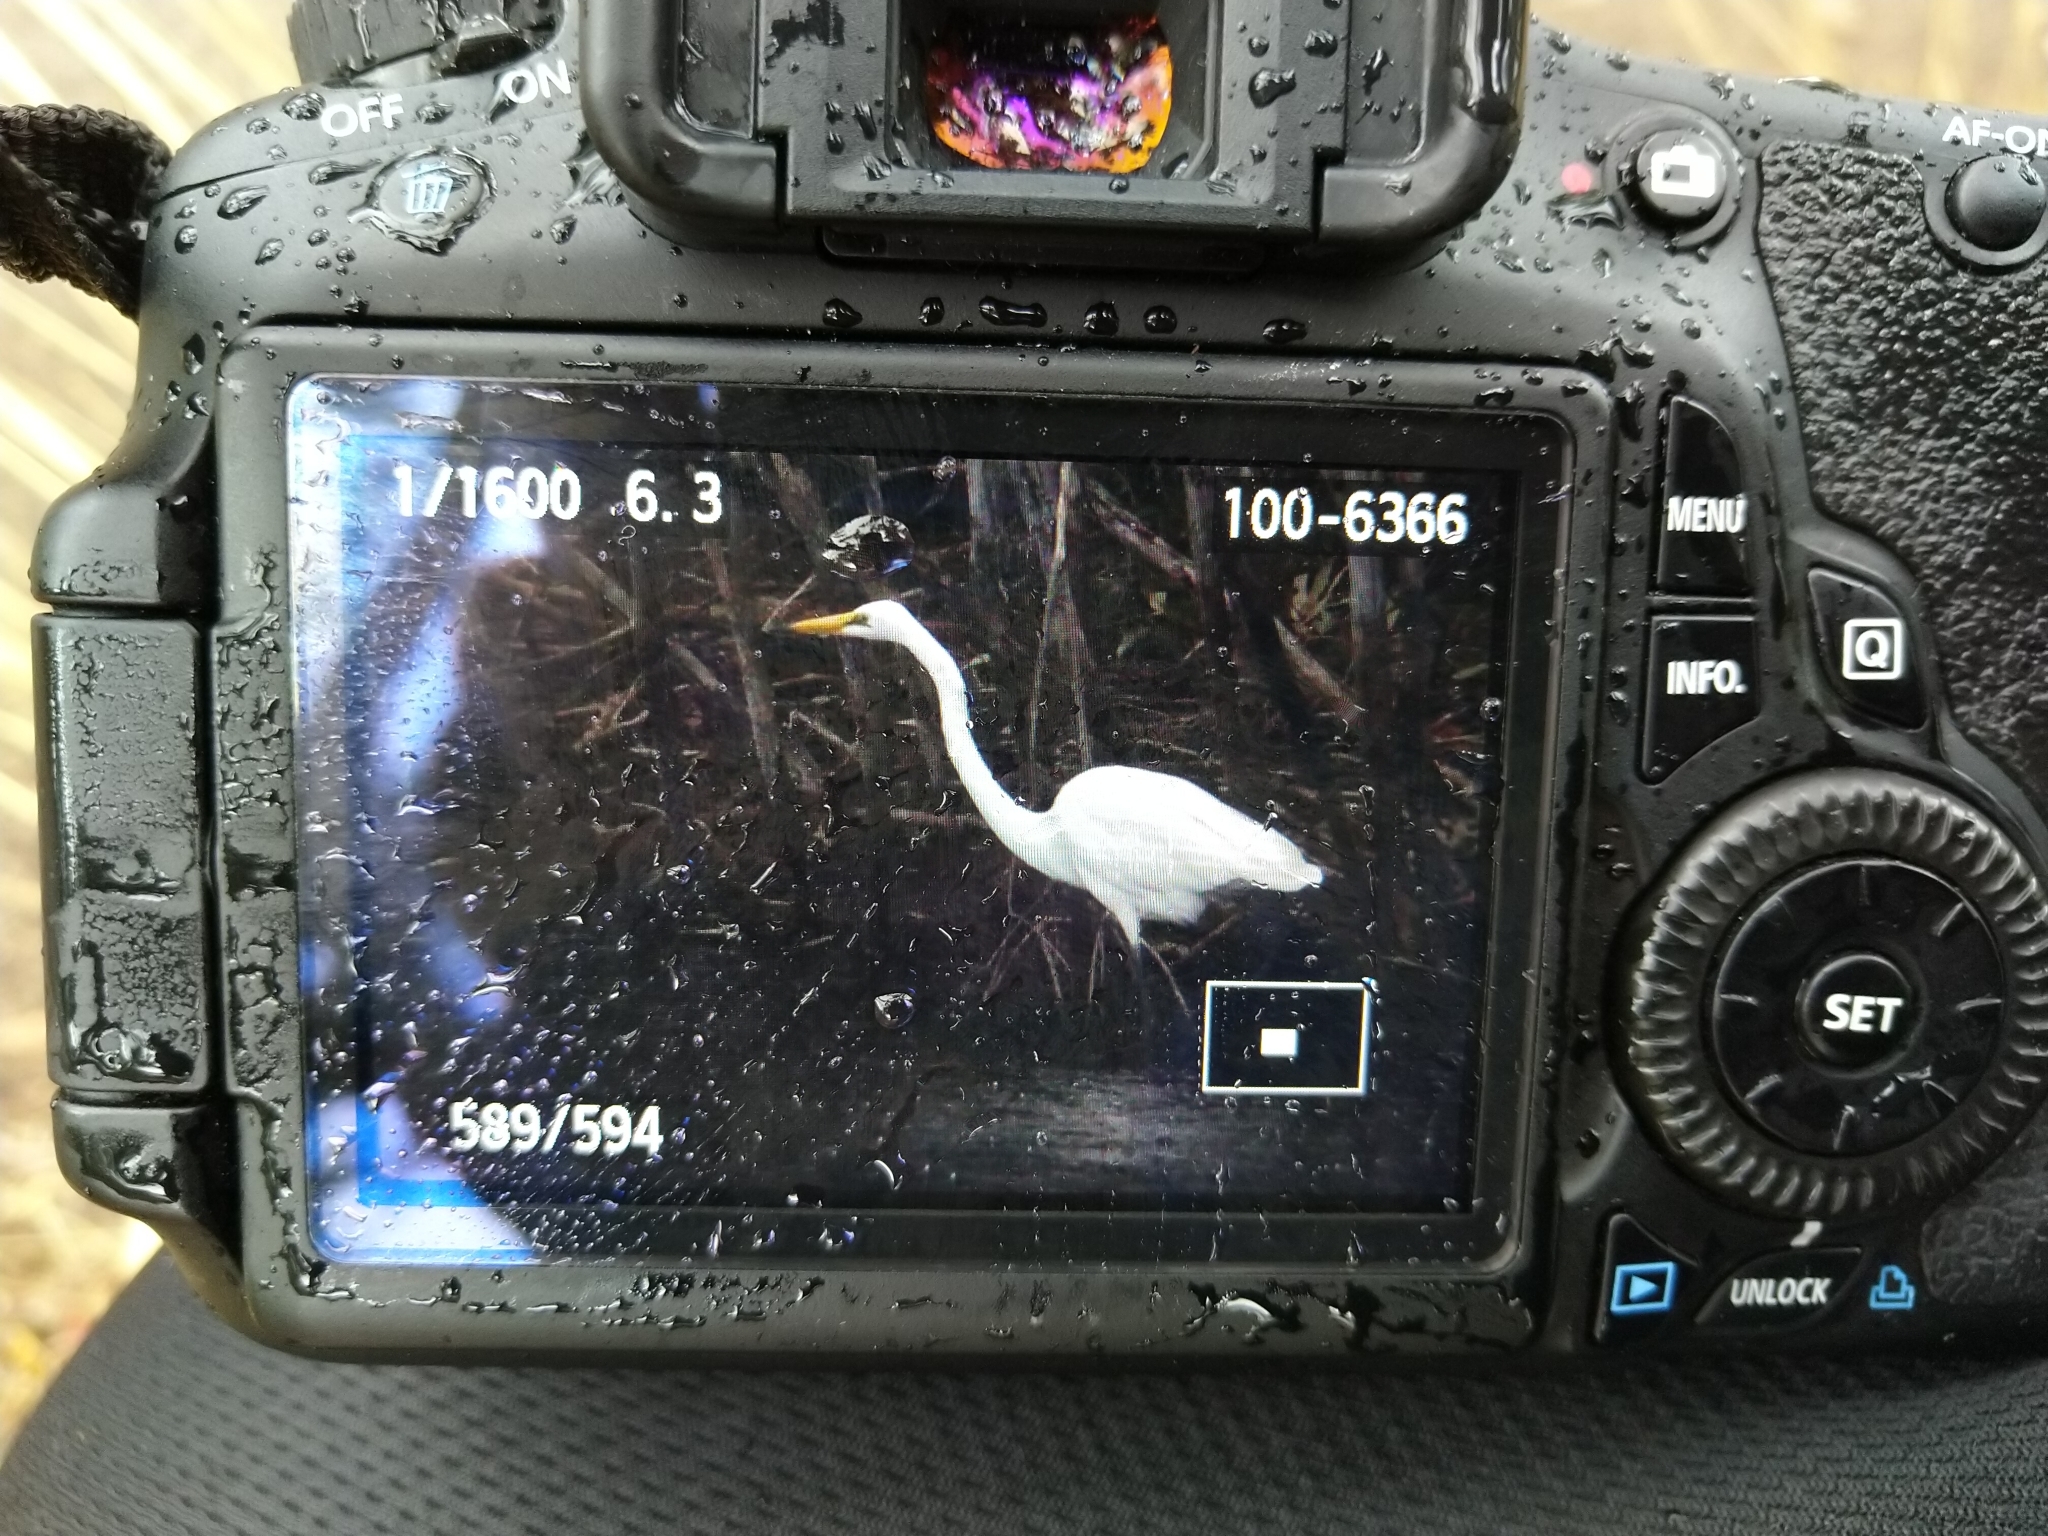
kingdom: Animalia
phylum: Chordata
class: Aves
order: Pelecaniformes
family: Ardeidae
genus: Ardea
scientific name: Ardea alba
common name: Great egret
